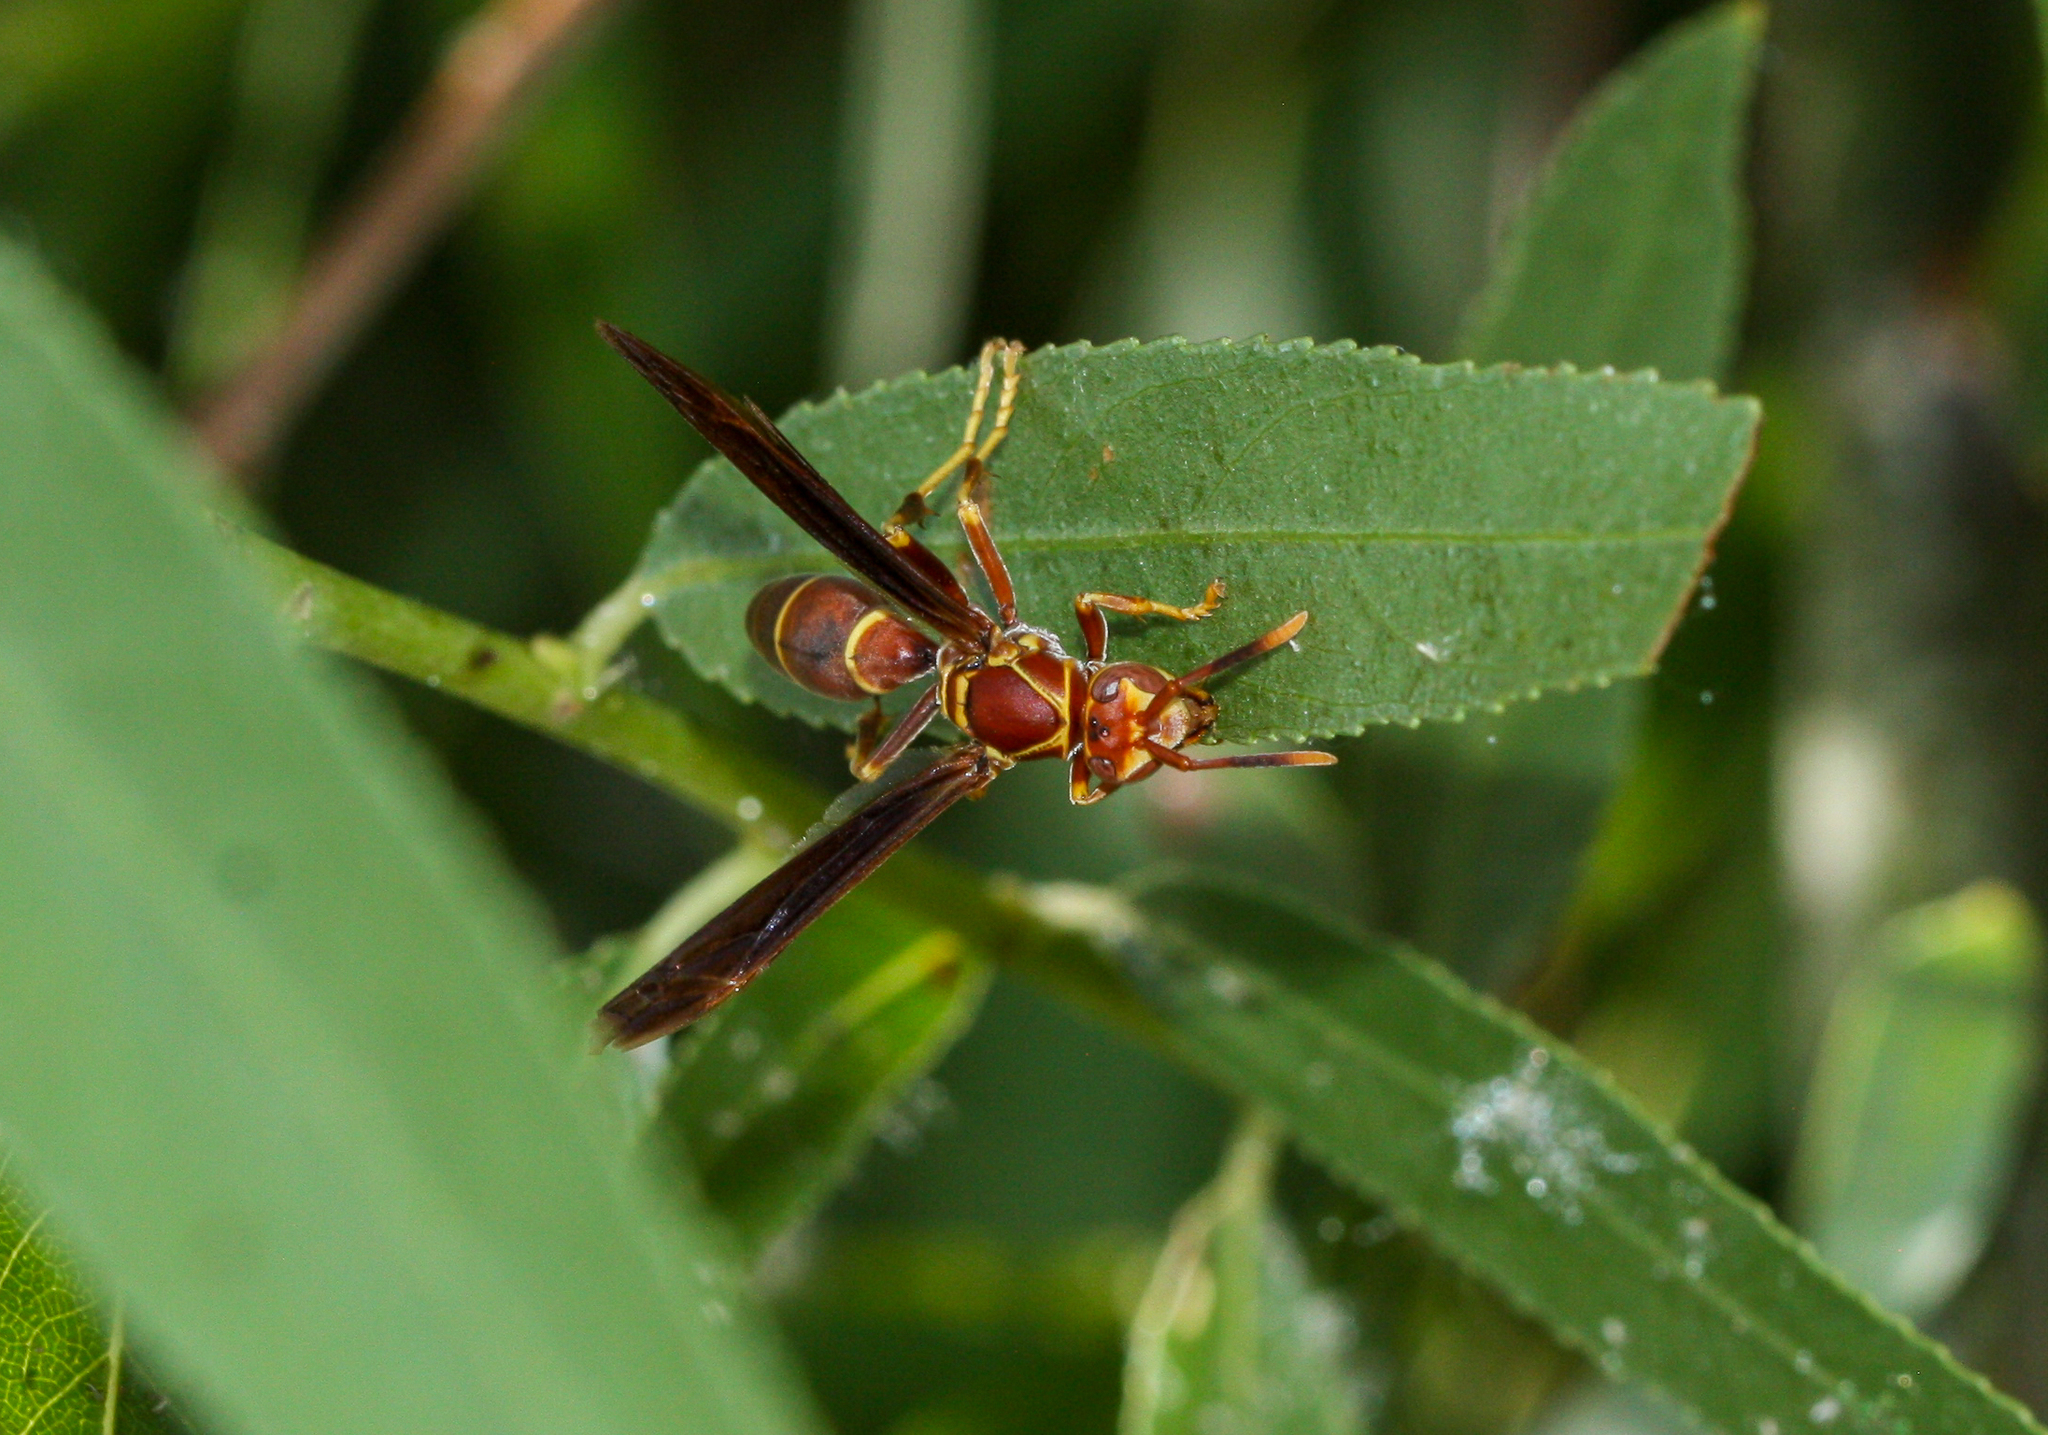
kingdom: Animalia
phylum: Arthropoda
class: Insecta
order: Hymenoptera
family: Eumenidae
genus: Polistes
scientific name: Polistes arizonensis
